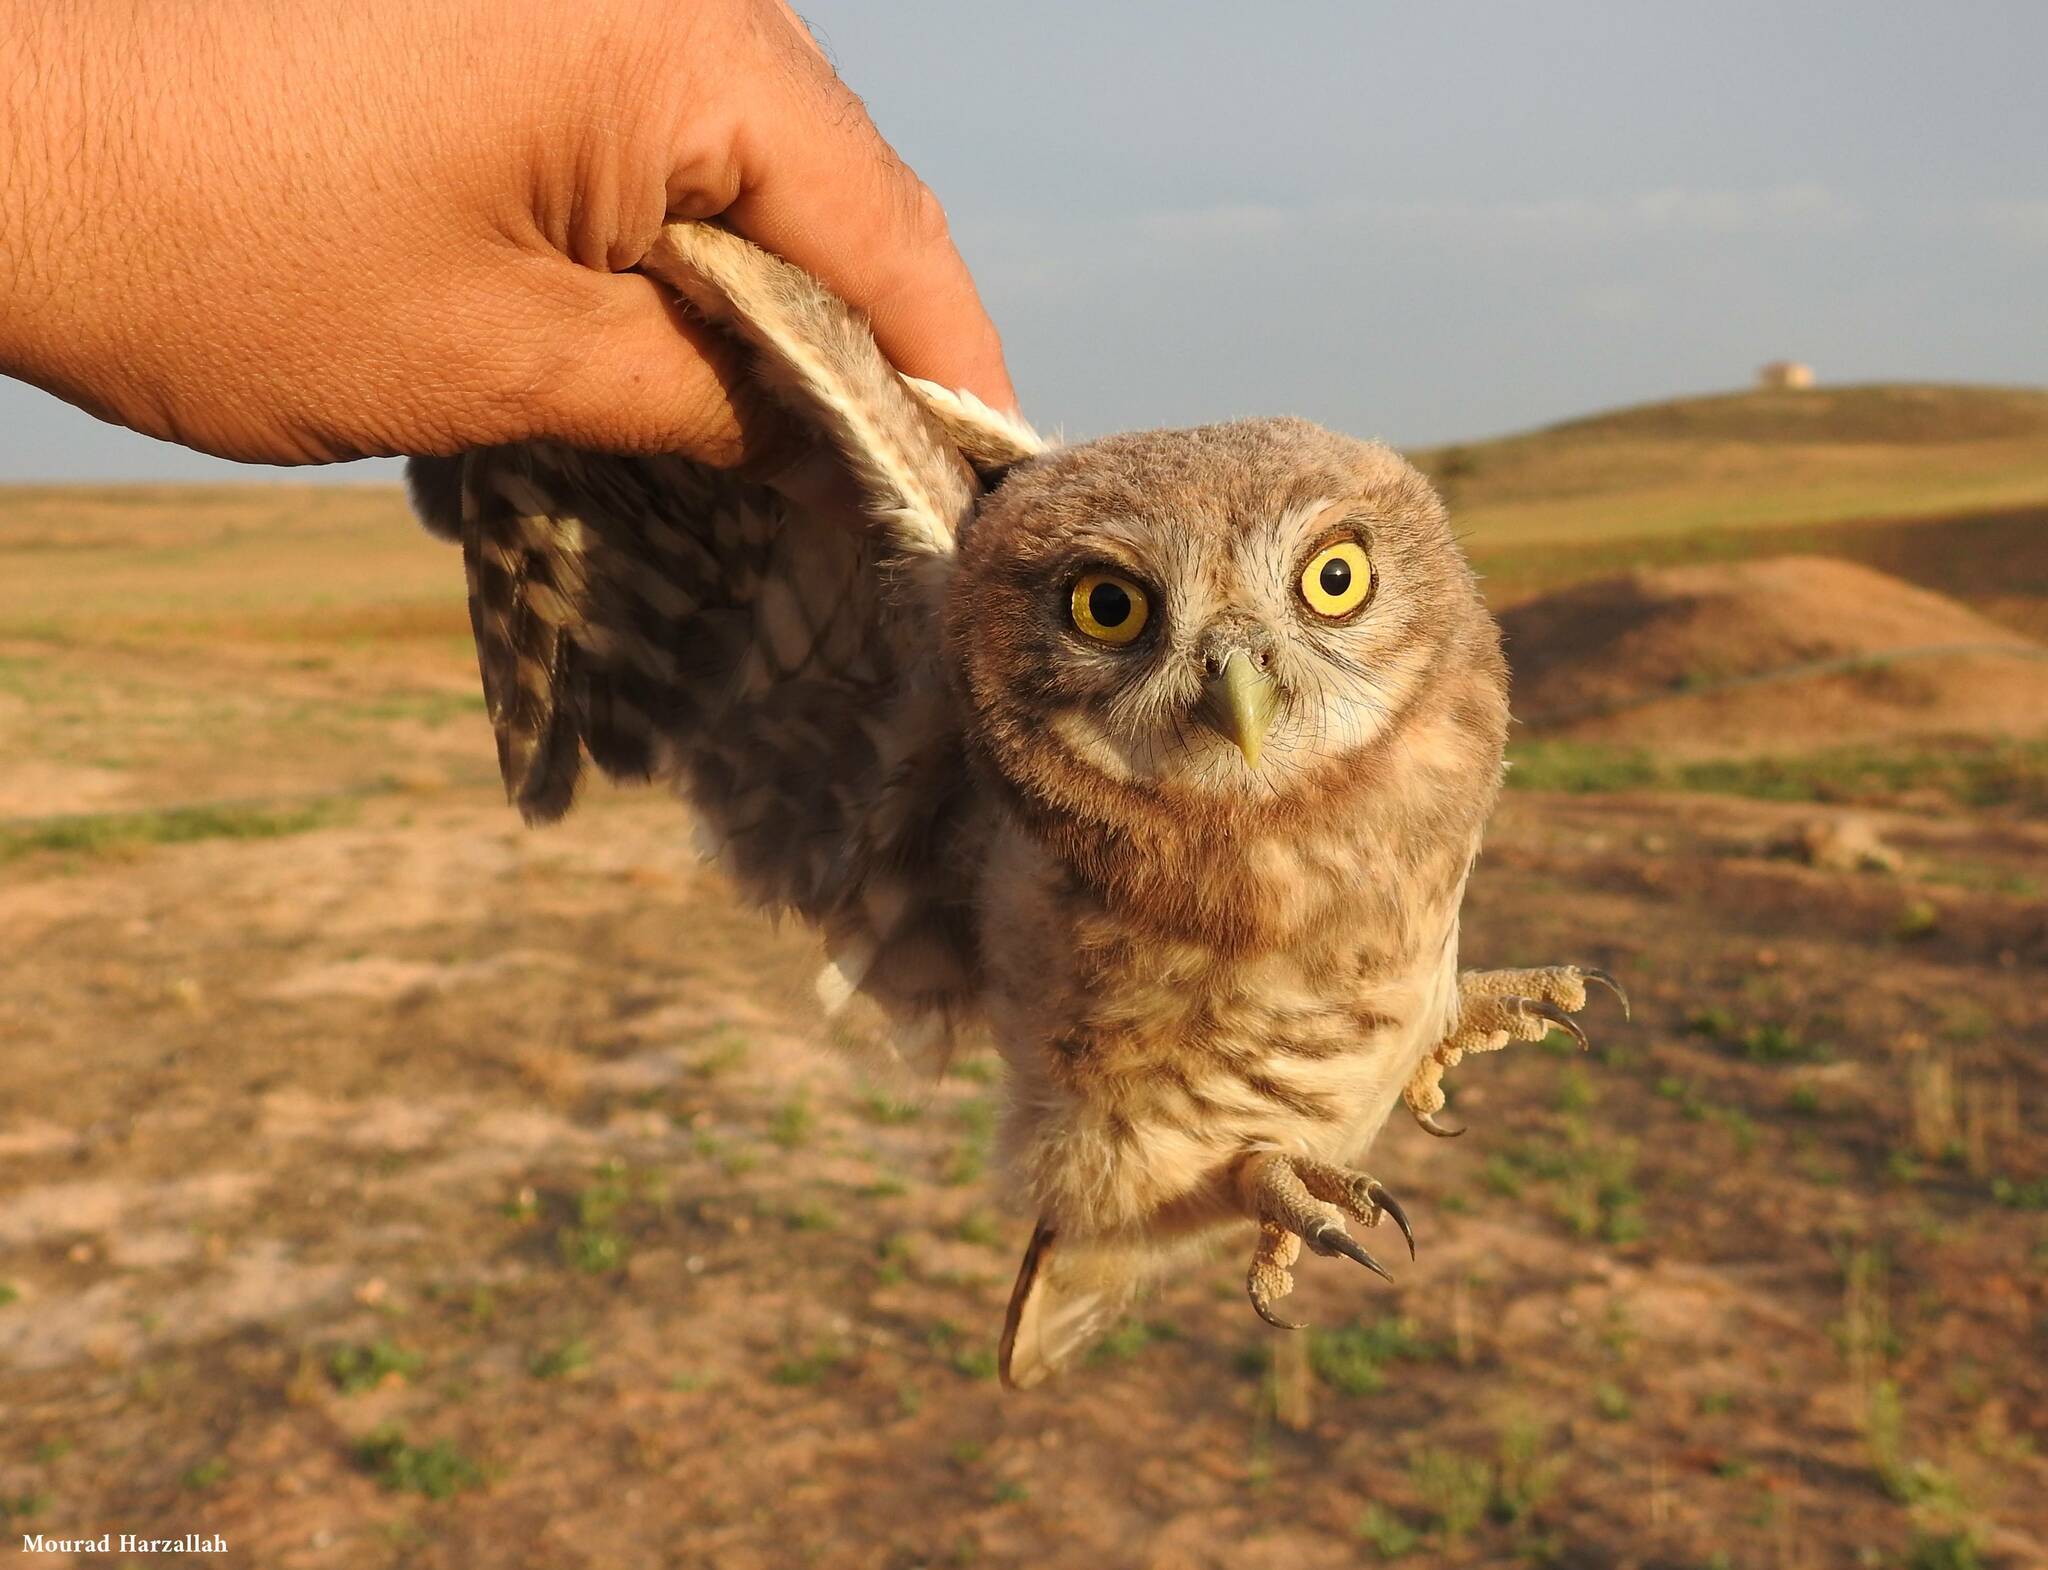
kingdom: Animalia
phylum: Chordata
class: Aves
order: Strigiformes
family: Strigidae
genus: Athene
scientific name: Athene noctua
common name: Little owl
